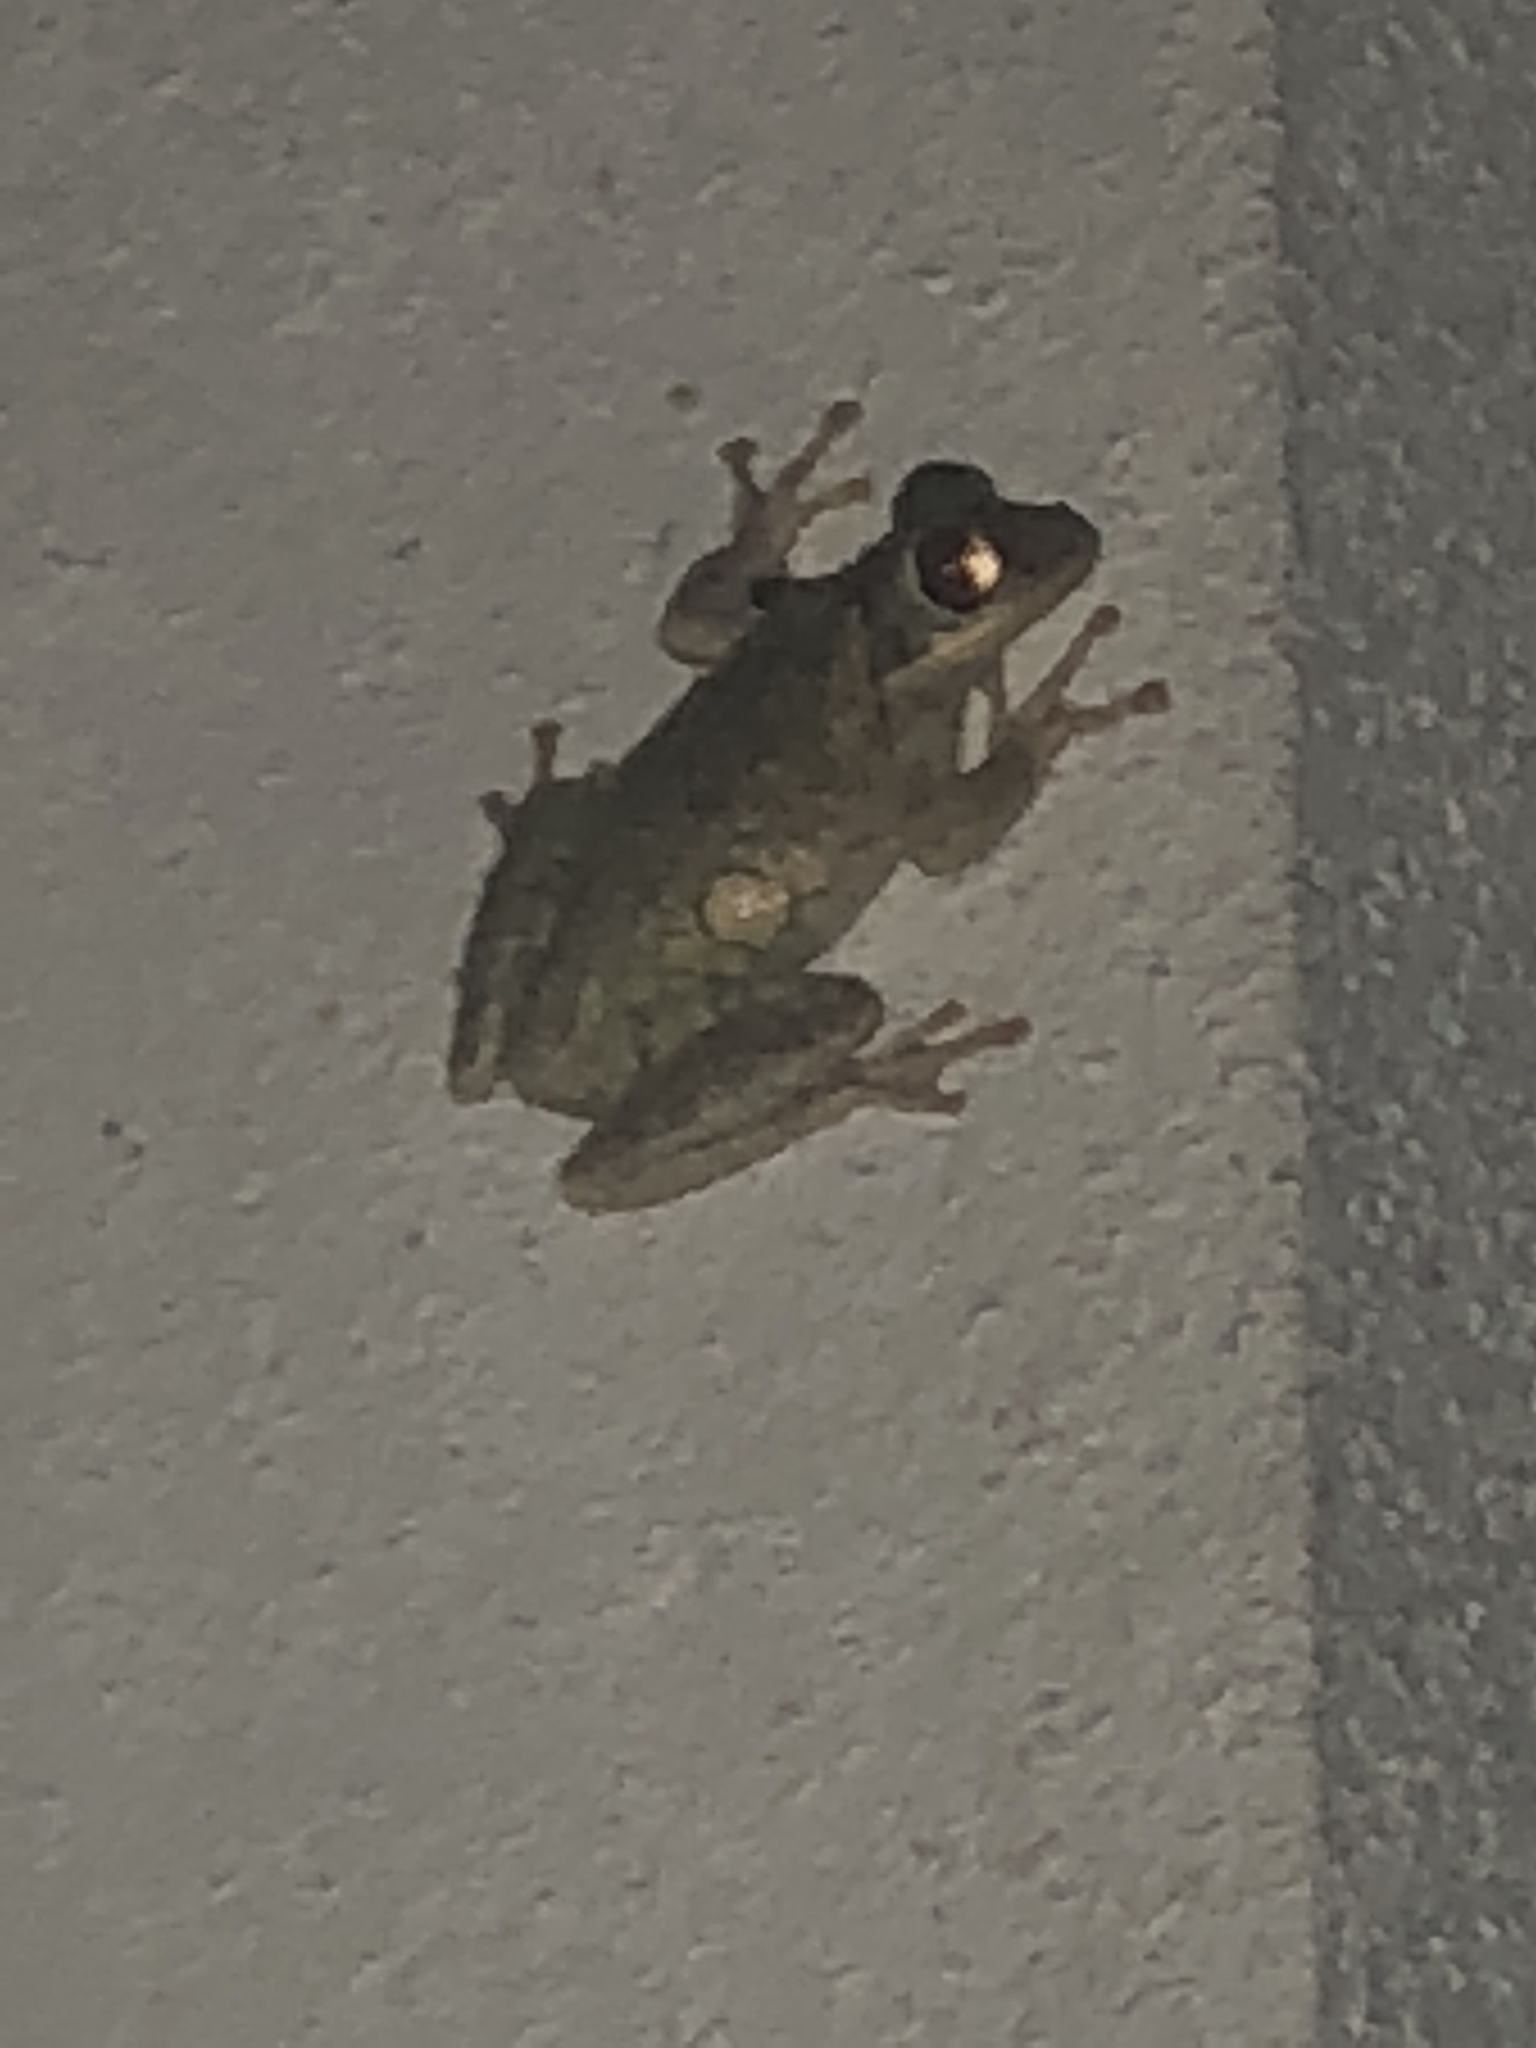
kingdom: Animalia
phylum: Chordata
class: Amphibia
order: Anura
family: Hylidae
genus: Osteopilus
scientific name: Osteopilus septentrionalis
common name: Cuban treefrog
